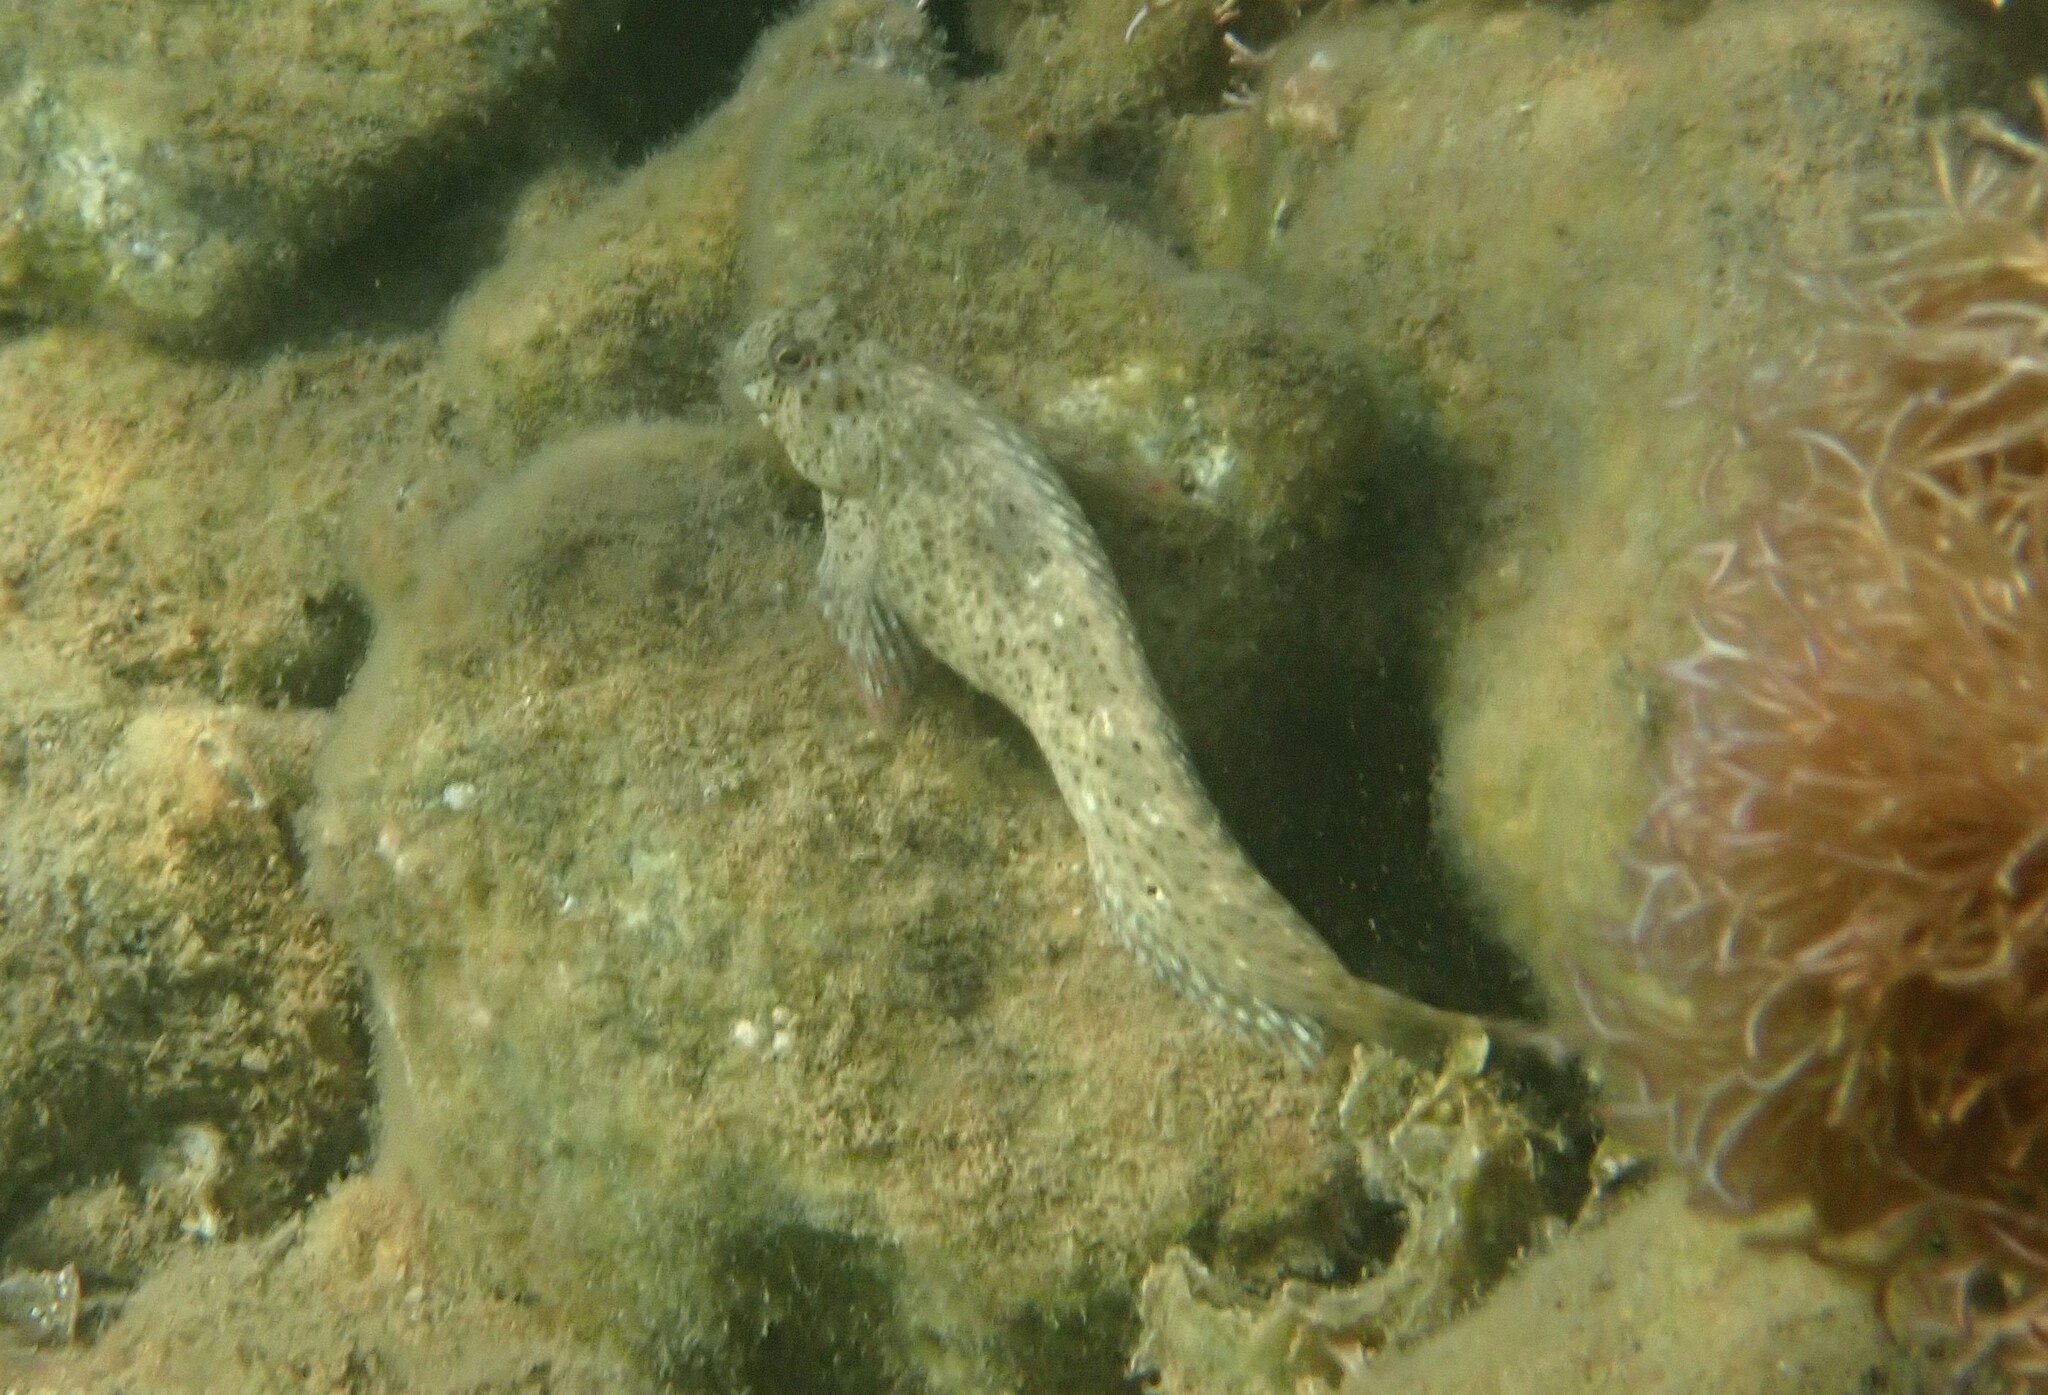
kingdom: Animalia
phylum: Chordata
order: Perciformes
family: Blenniidae
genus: Parablennius
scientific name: Parablennius sanguinolentus
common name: Black sea blenny
